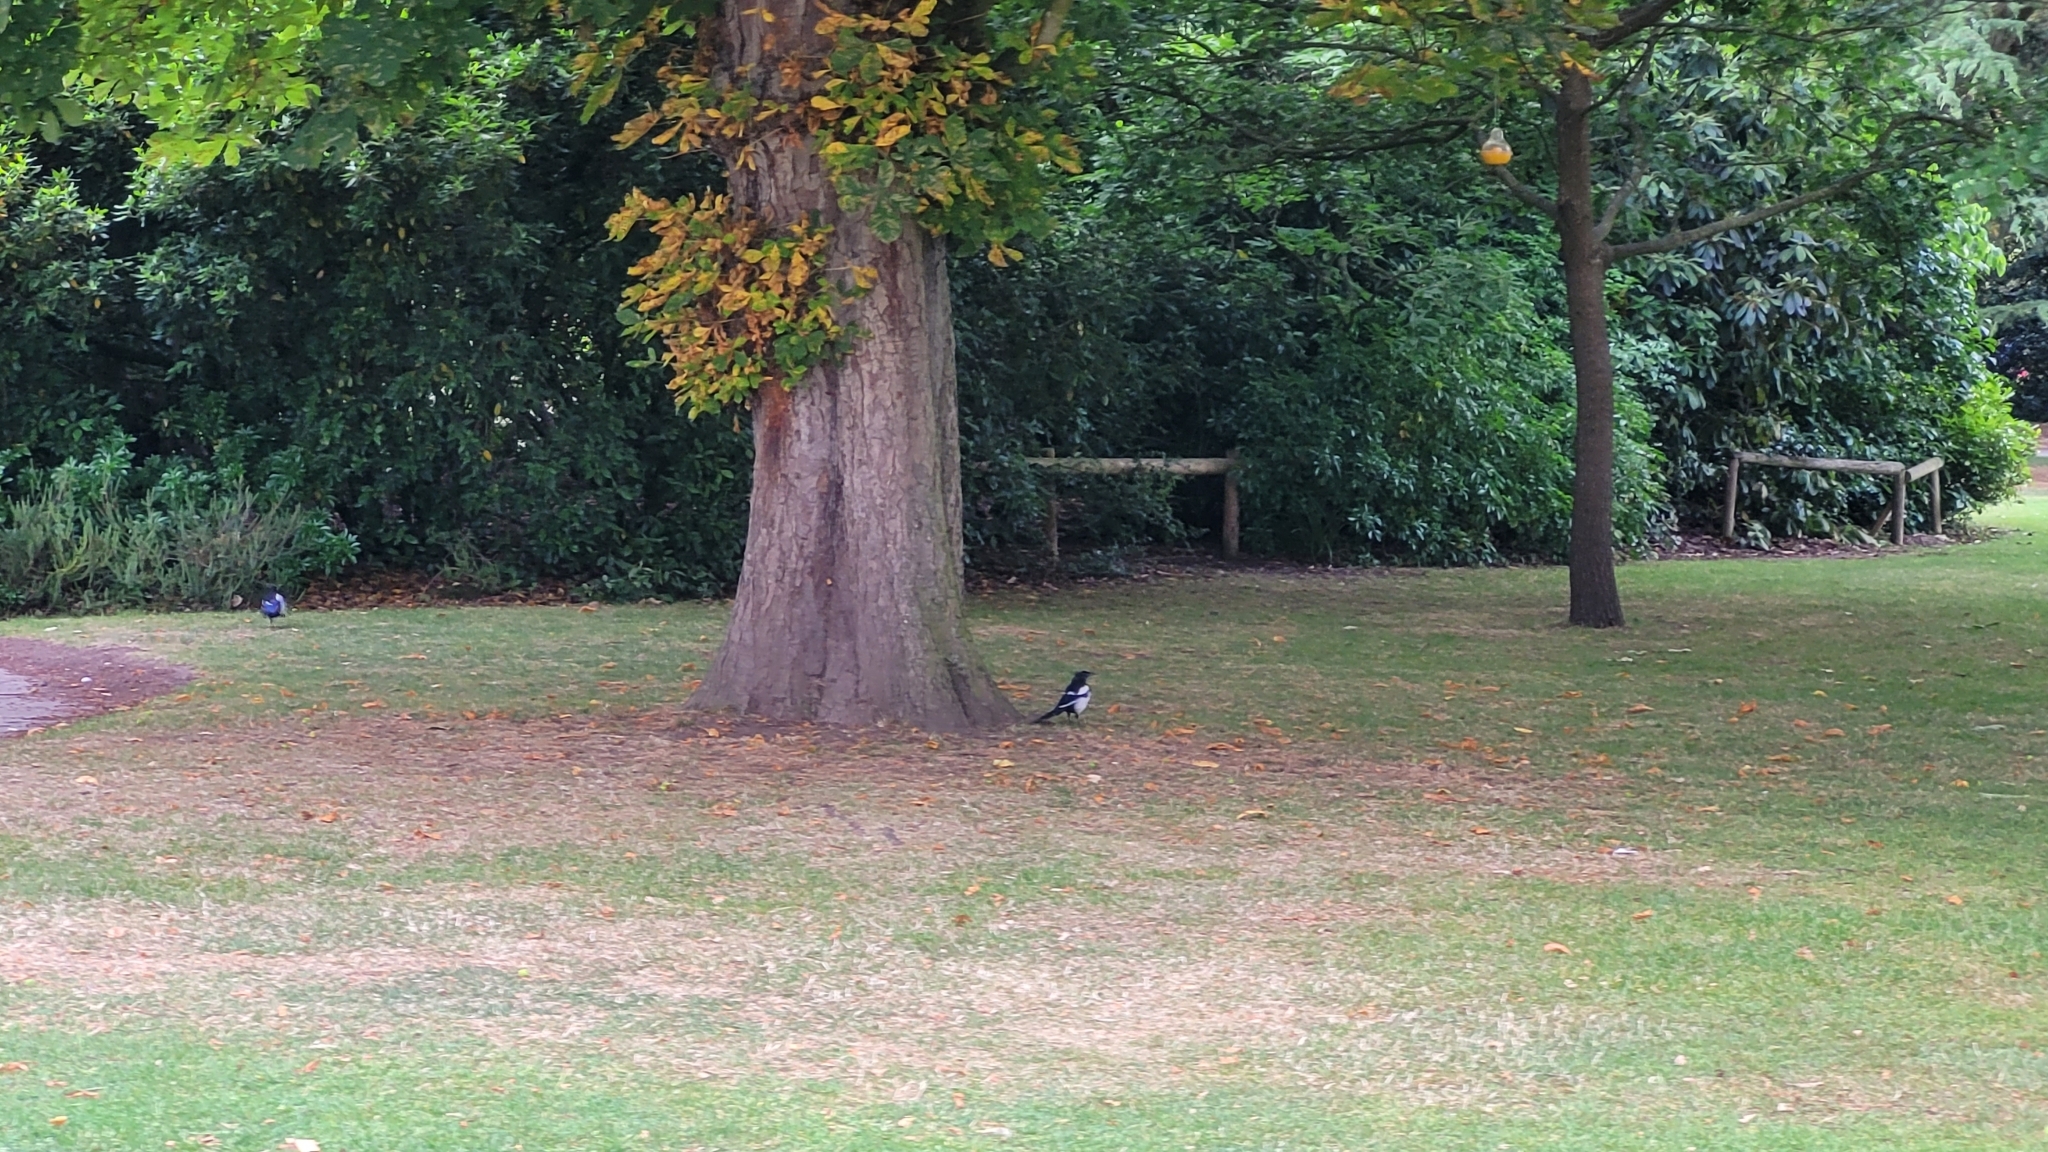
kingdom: Animalia
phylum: Chordata
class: Aves
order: Passeriformes
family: Corvidae
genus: Pica
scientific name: Pica pica
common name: Eurasian magpie
